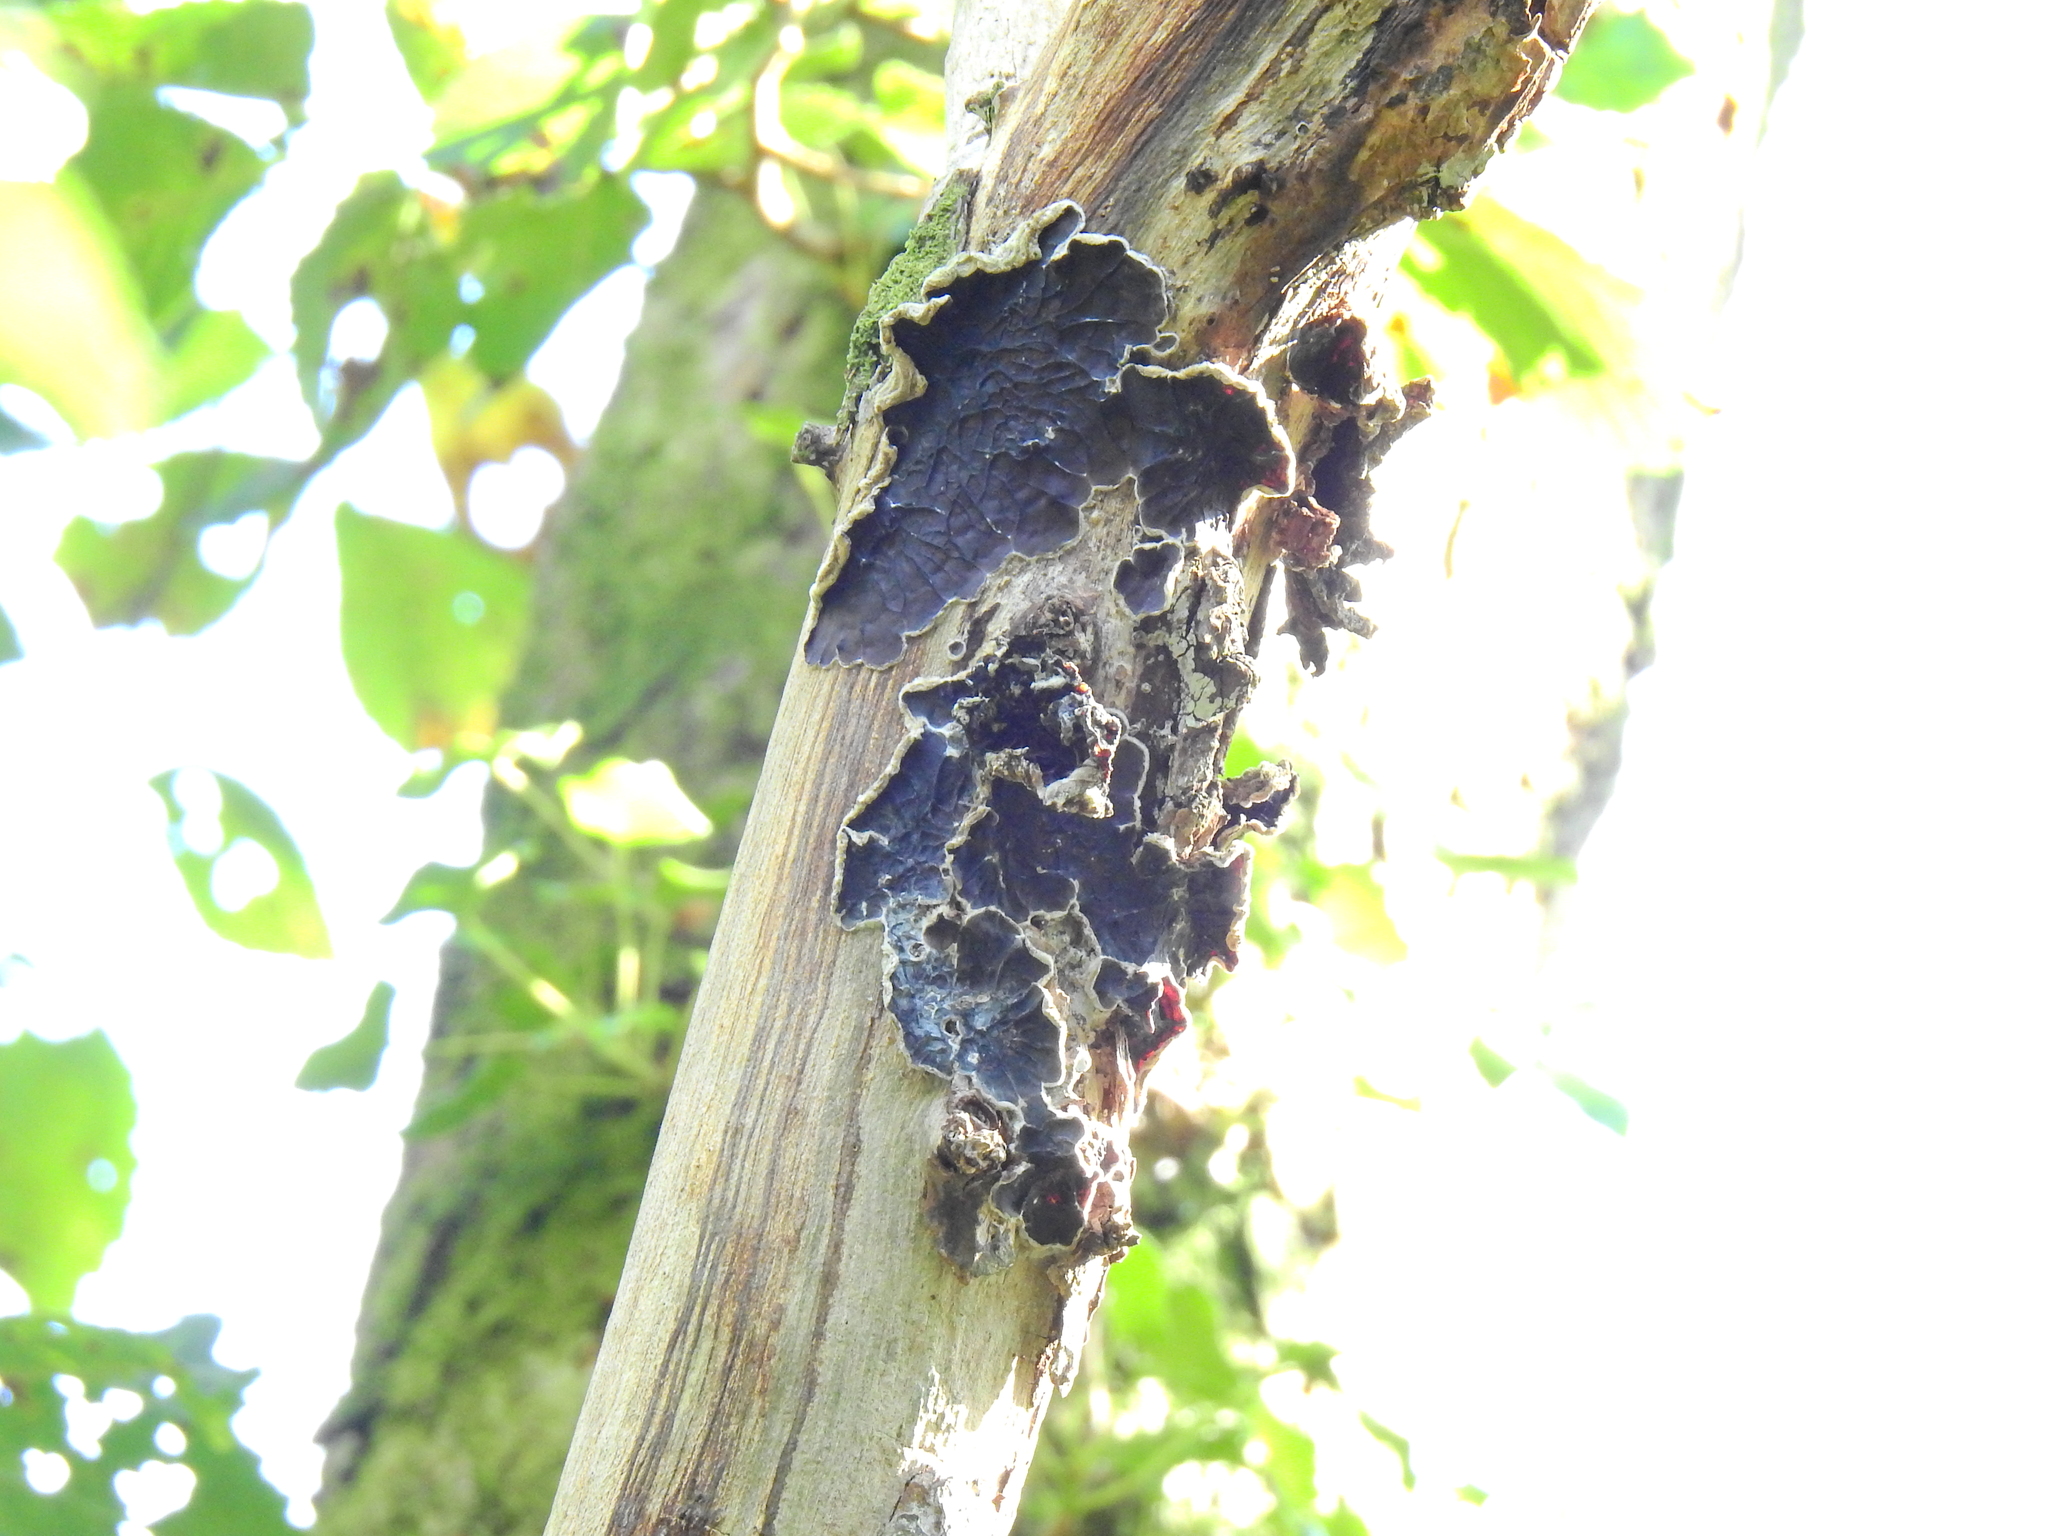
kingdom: Fungi
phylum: Basidiomycota
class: Agaricomycetes
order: Auriculariales
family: Auriculariaceae
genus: Auricularia
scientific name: Auricularia mesenterica
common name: Tripe fungus
